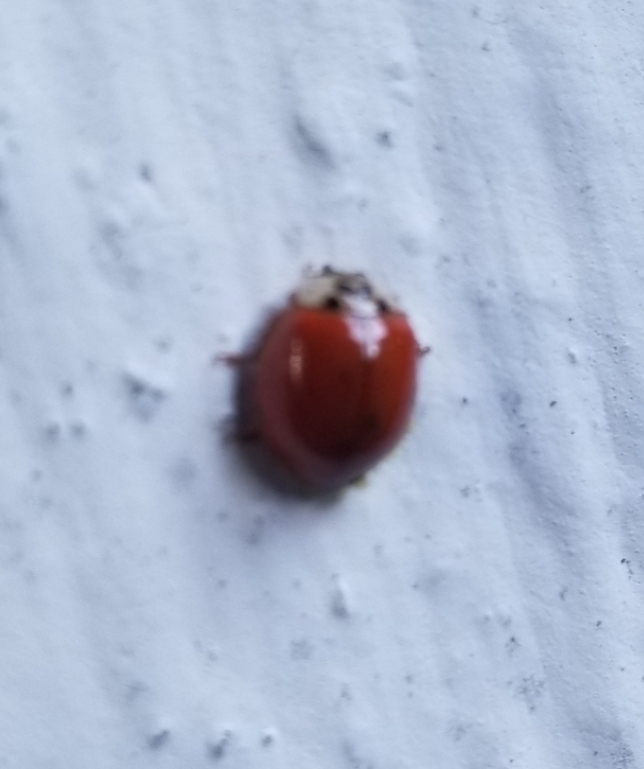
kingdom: Animalia
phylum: Arthropoda
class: Insecta
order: Coleoptera
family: Coccinellidae
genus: Harmonia
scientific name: Harmonia axyridis
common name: Harlequin ladybird
